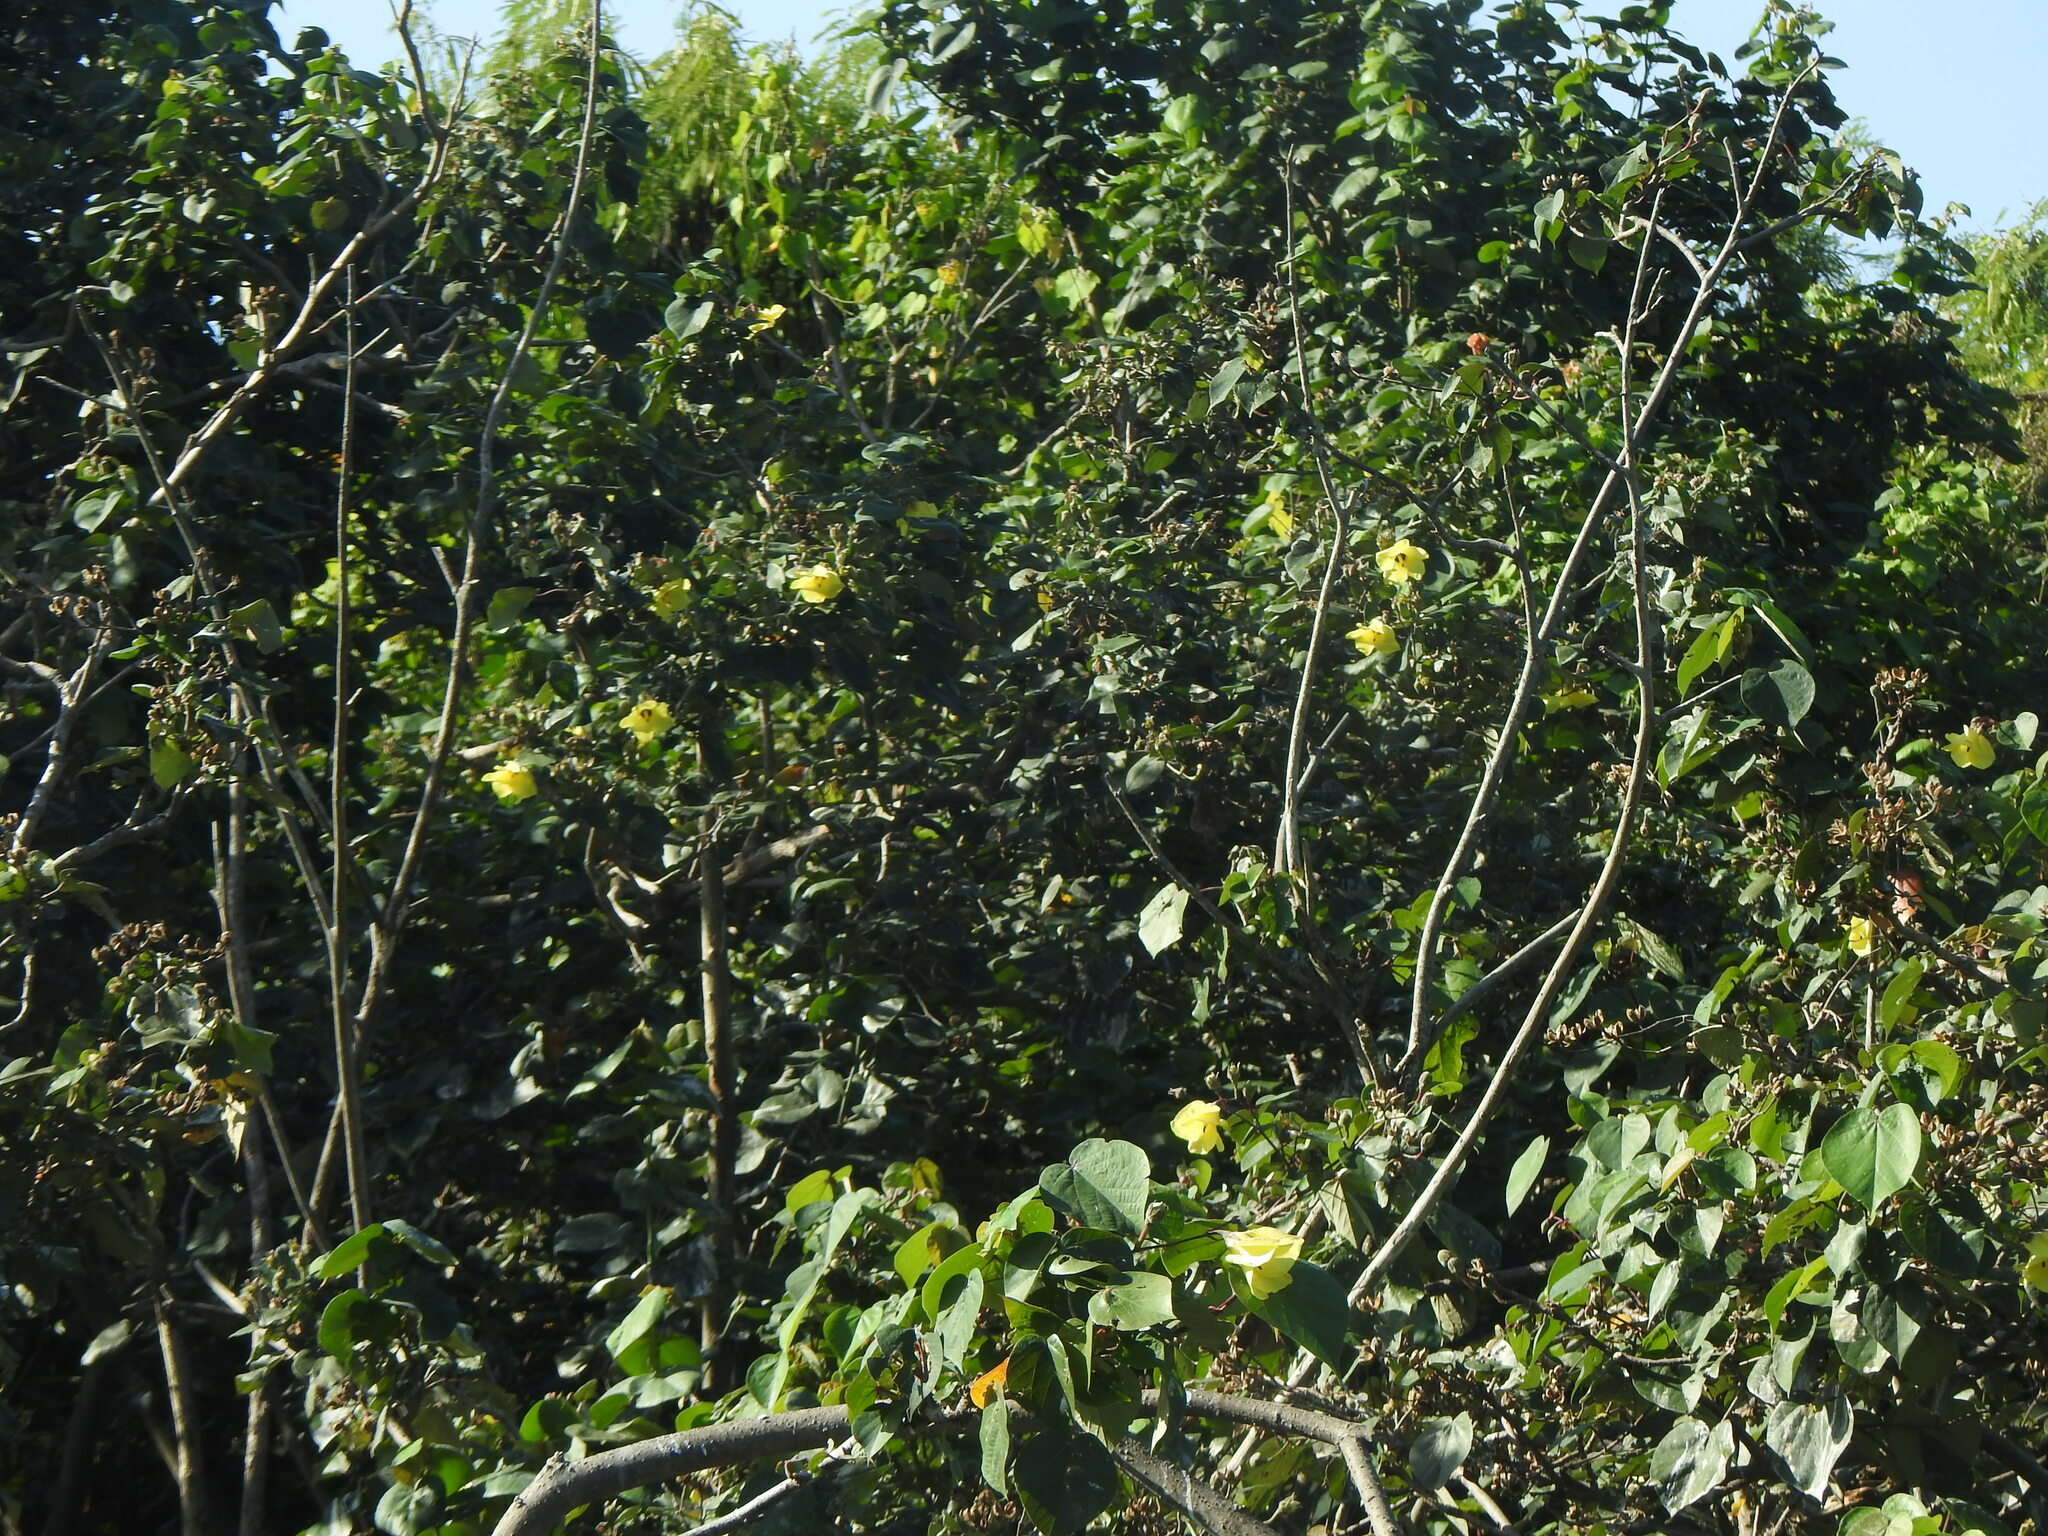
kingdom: Plantae
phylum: Tracheophyta
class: Magnoliopsida
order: Malvales
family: Malvaceae
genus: Talipariti
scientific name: Talipariti tiliaceum
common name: Sea hibiscus
